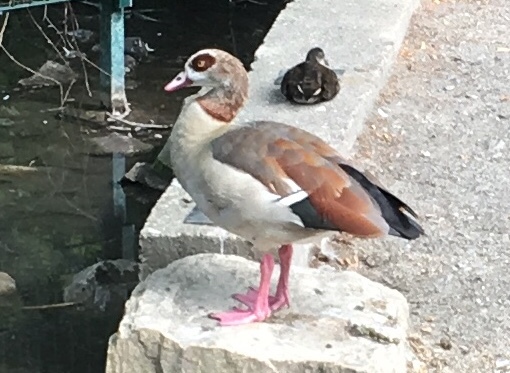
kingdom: Animalia
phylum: Chordata
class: Aves
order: Anseriformes
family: Anatidae
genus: Alopochen
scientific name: Alopochen aegyptiaca
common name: Egyptian goose
